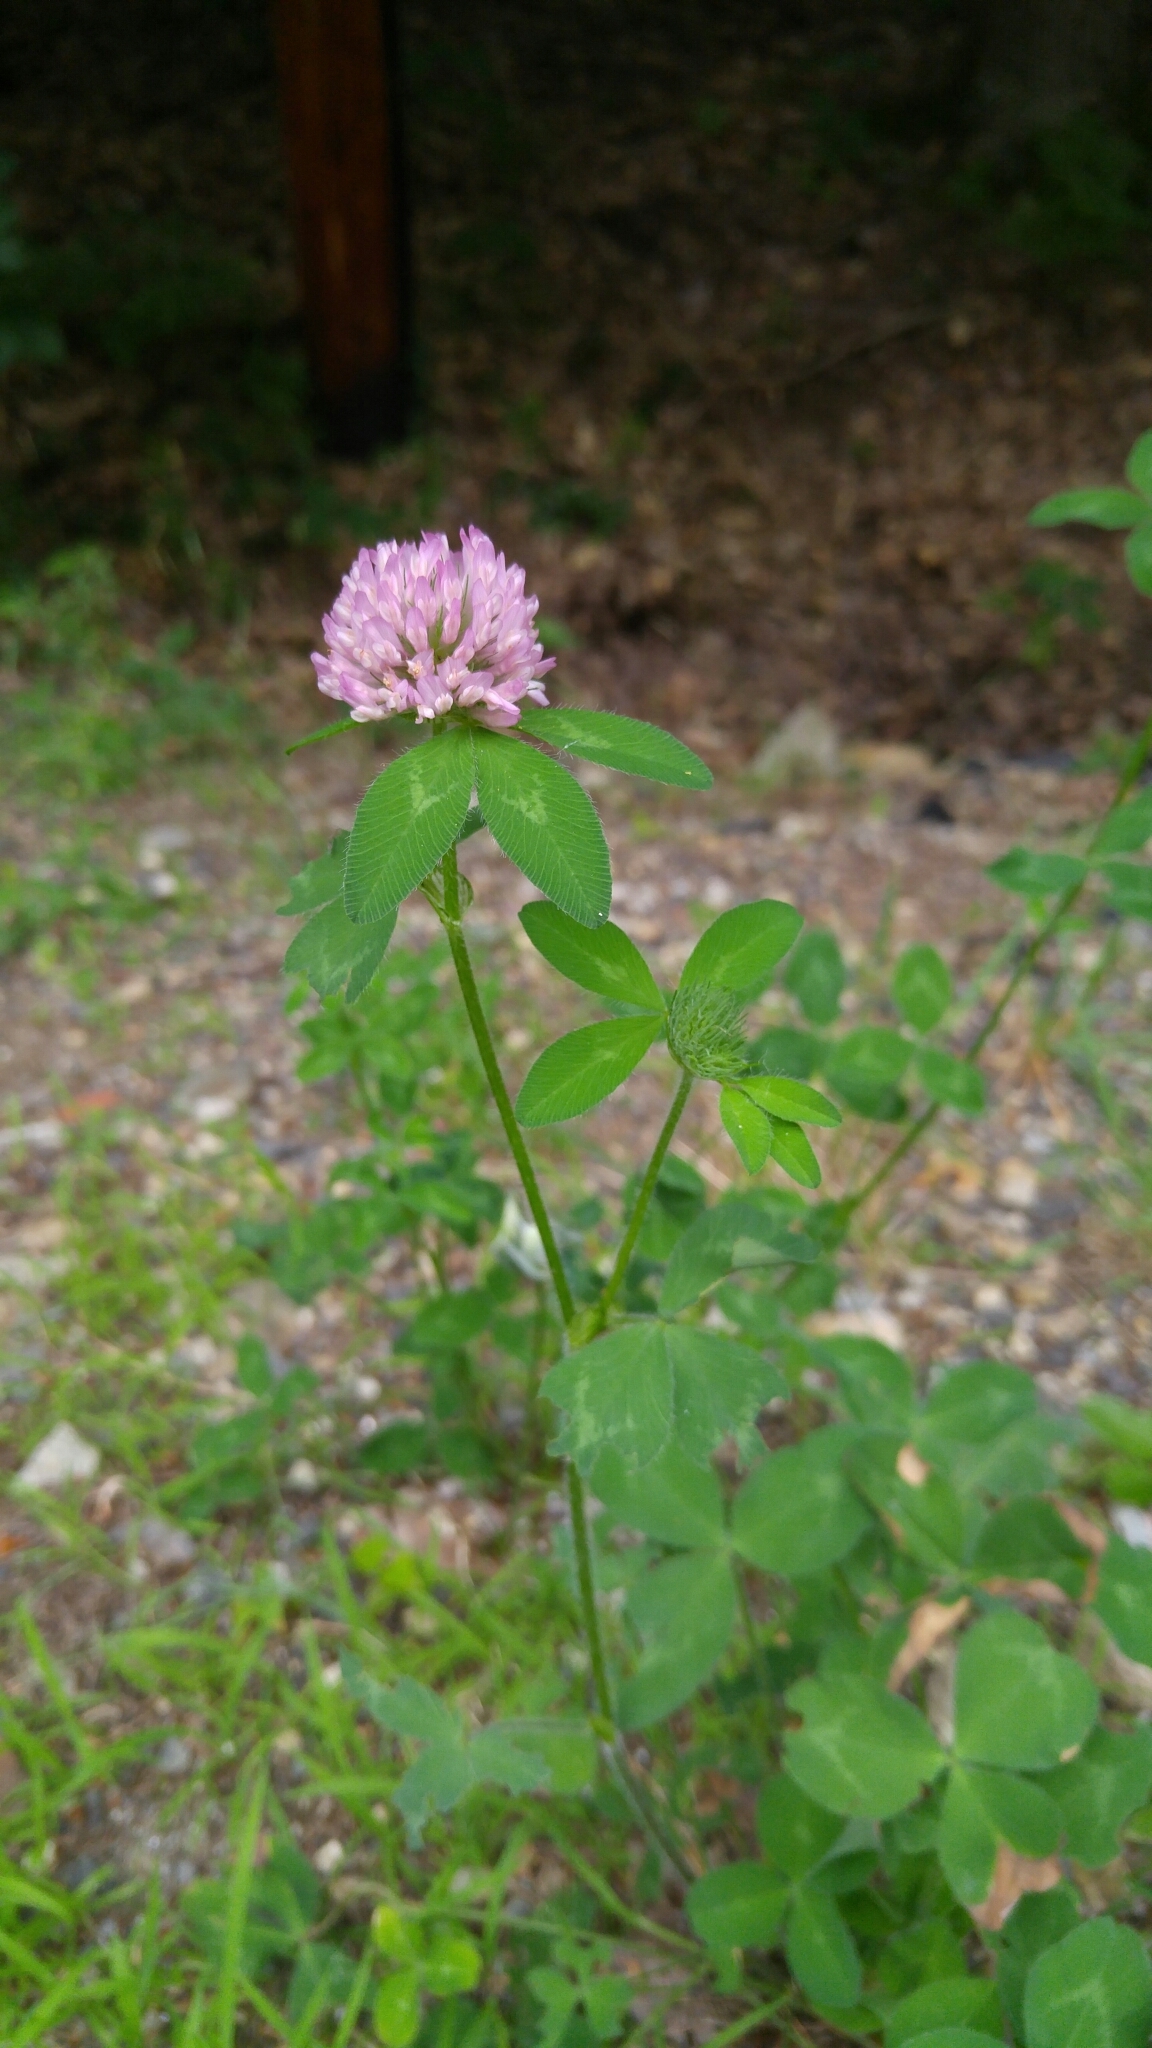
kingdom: Plantae
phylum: Tracheophyta
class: Magnoliopsida
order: Fabales
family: Fabaceae
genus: Trifolium
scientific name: Trifolium pratense
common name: Red clover
